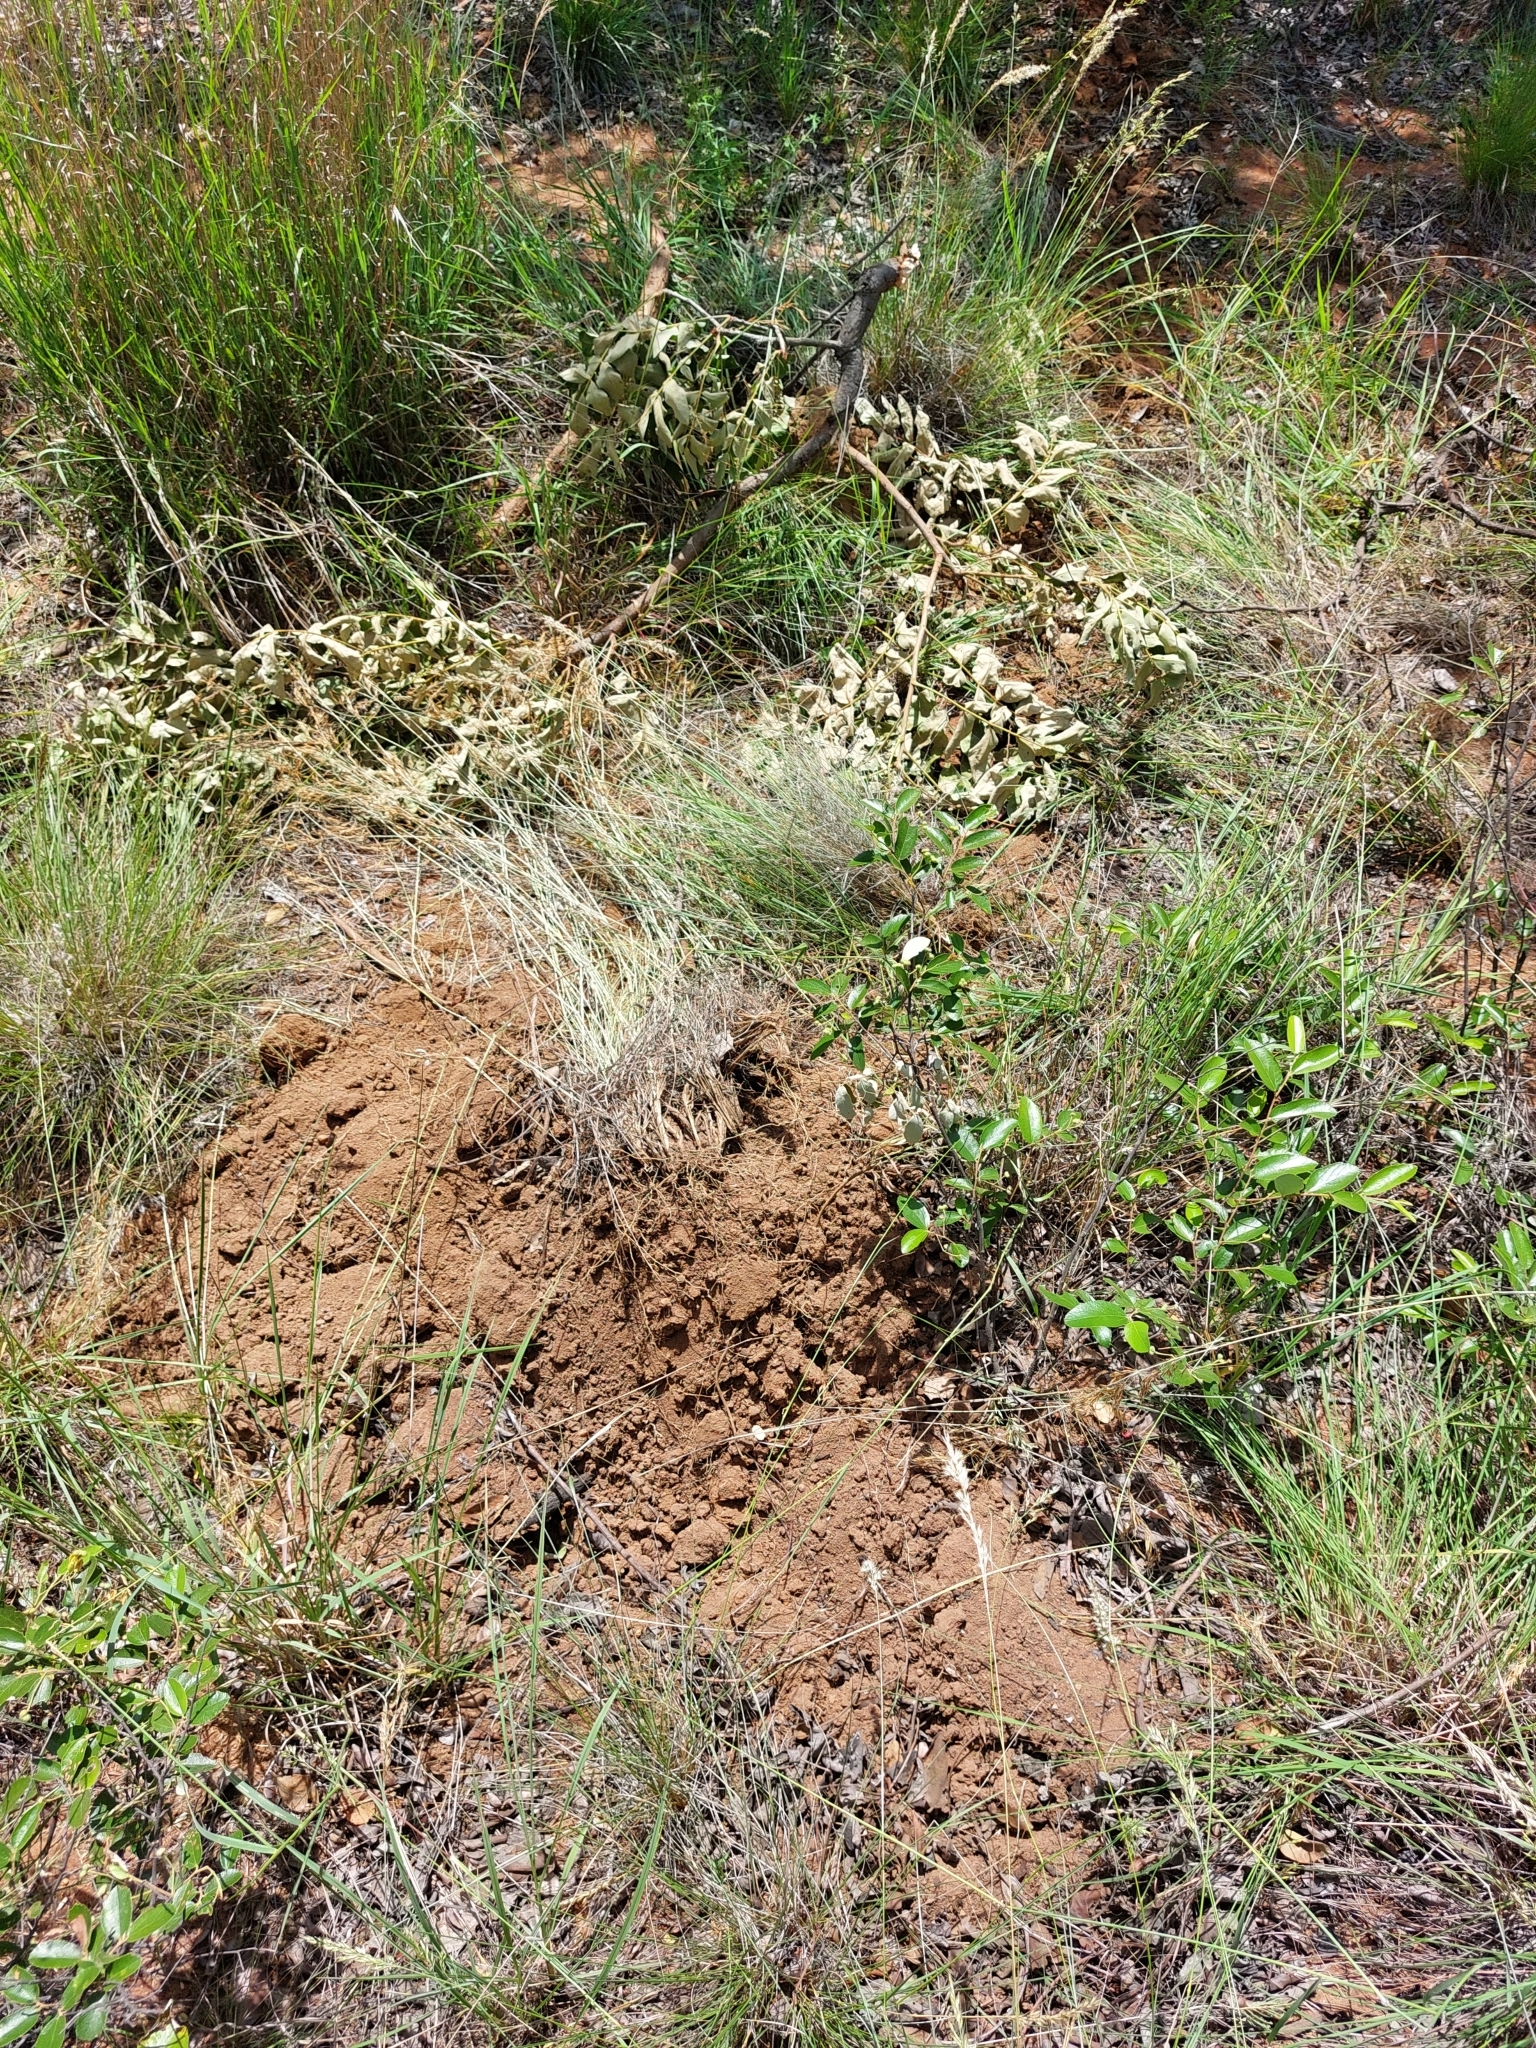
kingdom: Animalia
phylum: Chordata
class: Mammalia
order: Proboscidea
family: Elephantidae
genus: Loxodonta
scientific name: Loxodonta africana
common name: African elephant
